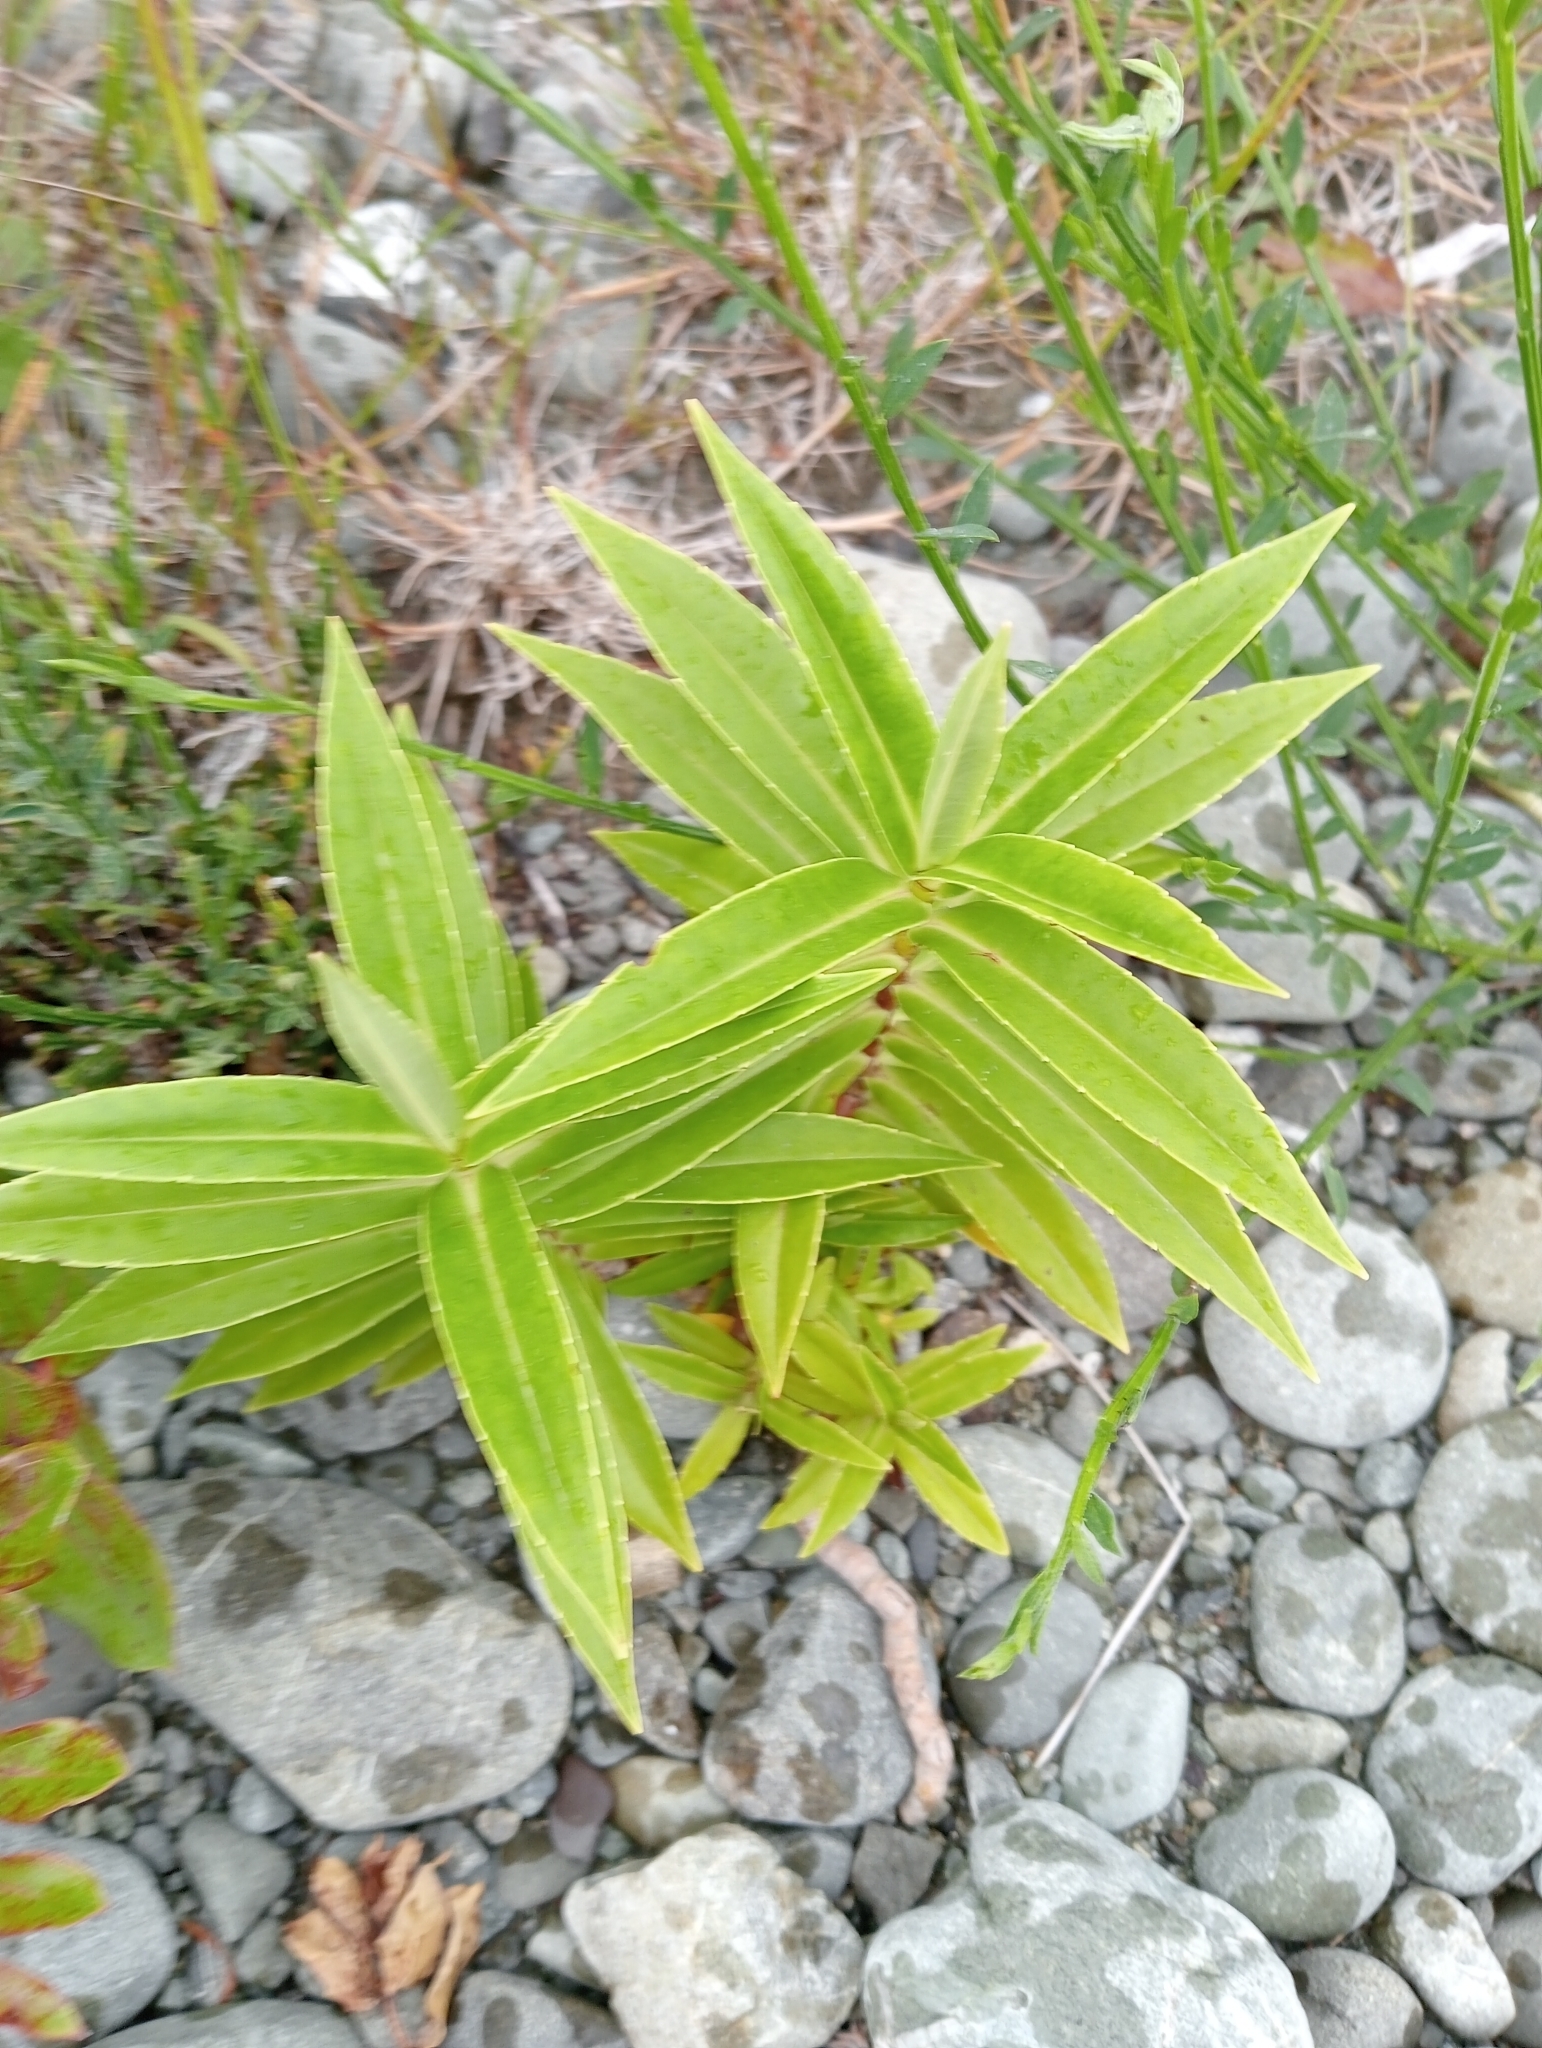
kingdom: Plantae
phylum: Tracheophyta
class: Magnoliopsida
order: Lamiales
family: Plantaginaceae
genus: Veronica
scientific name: Veronica salicifolia
